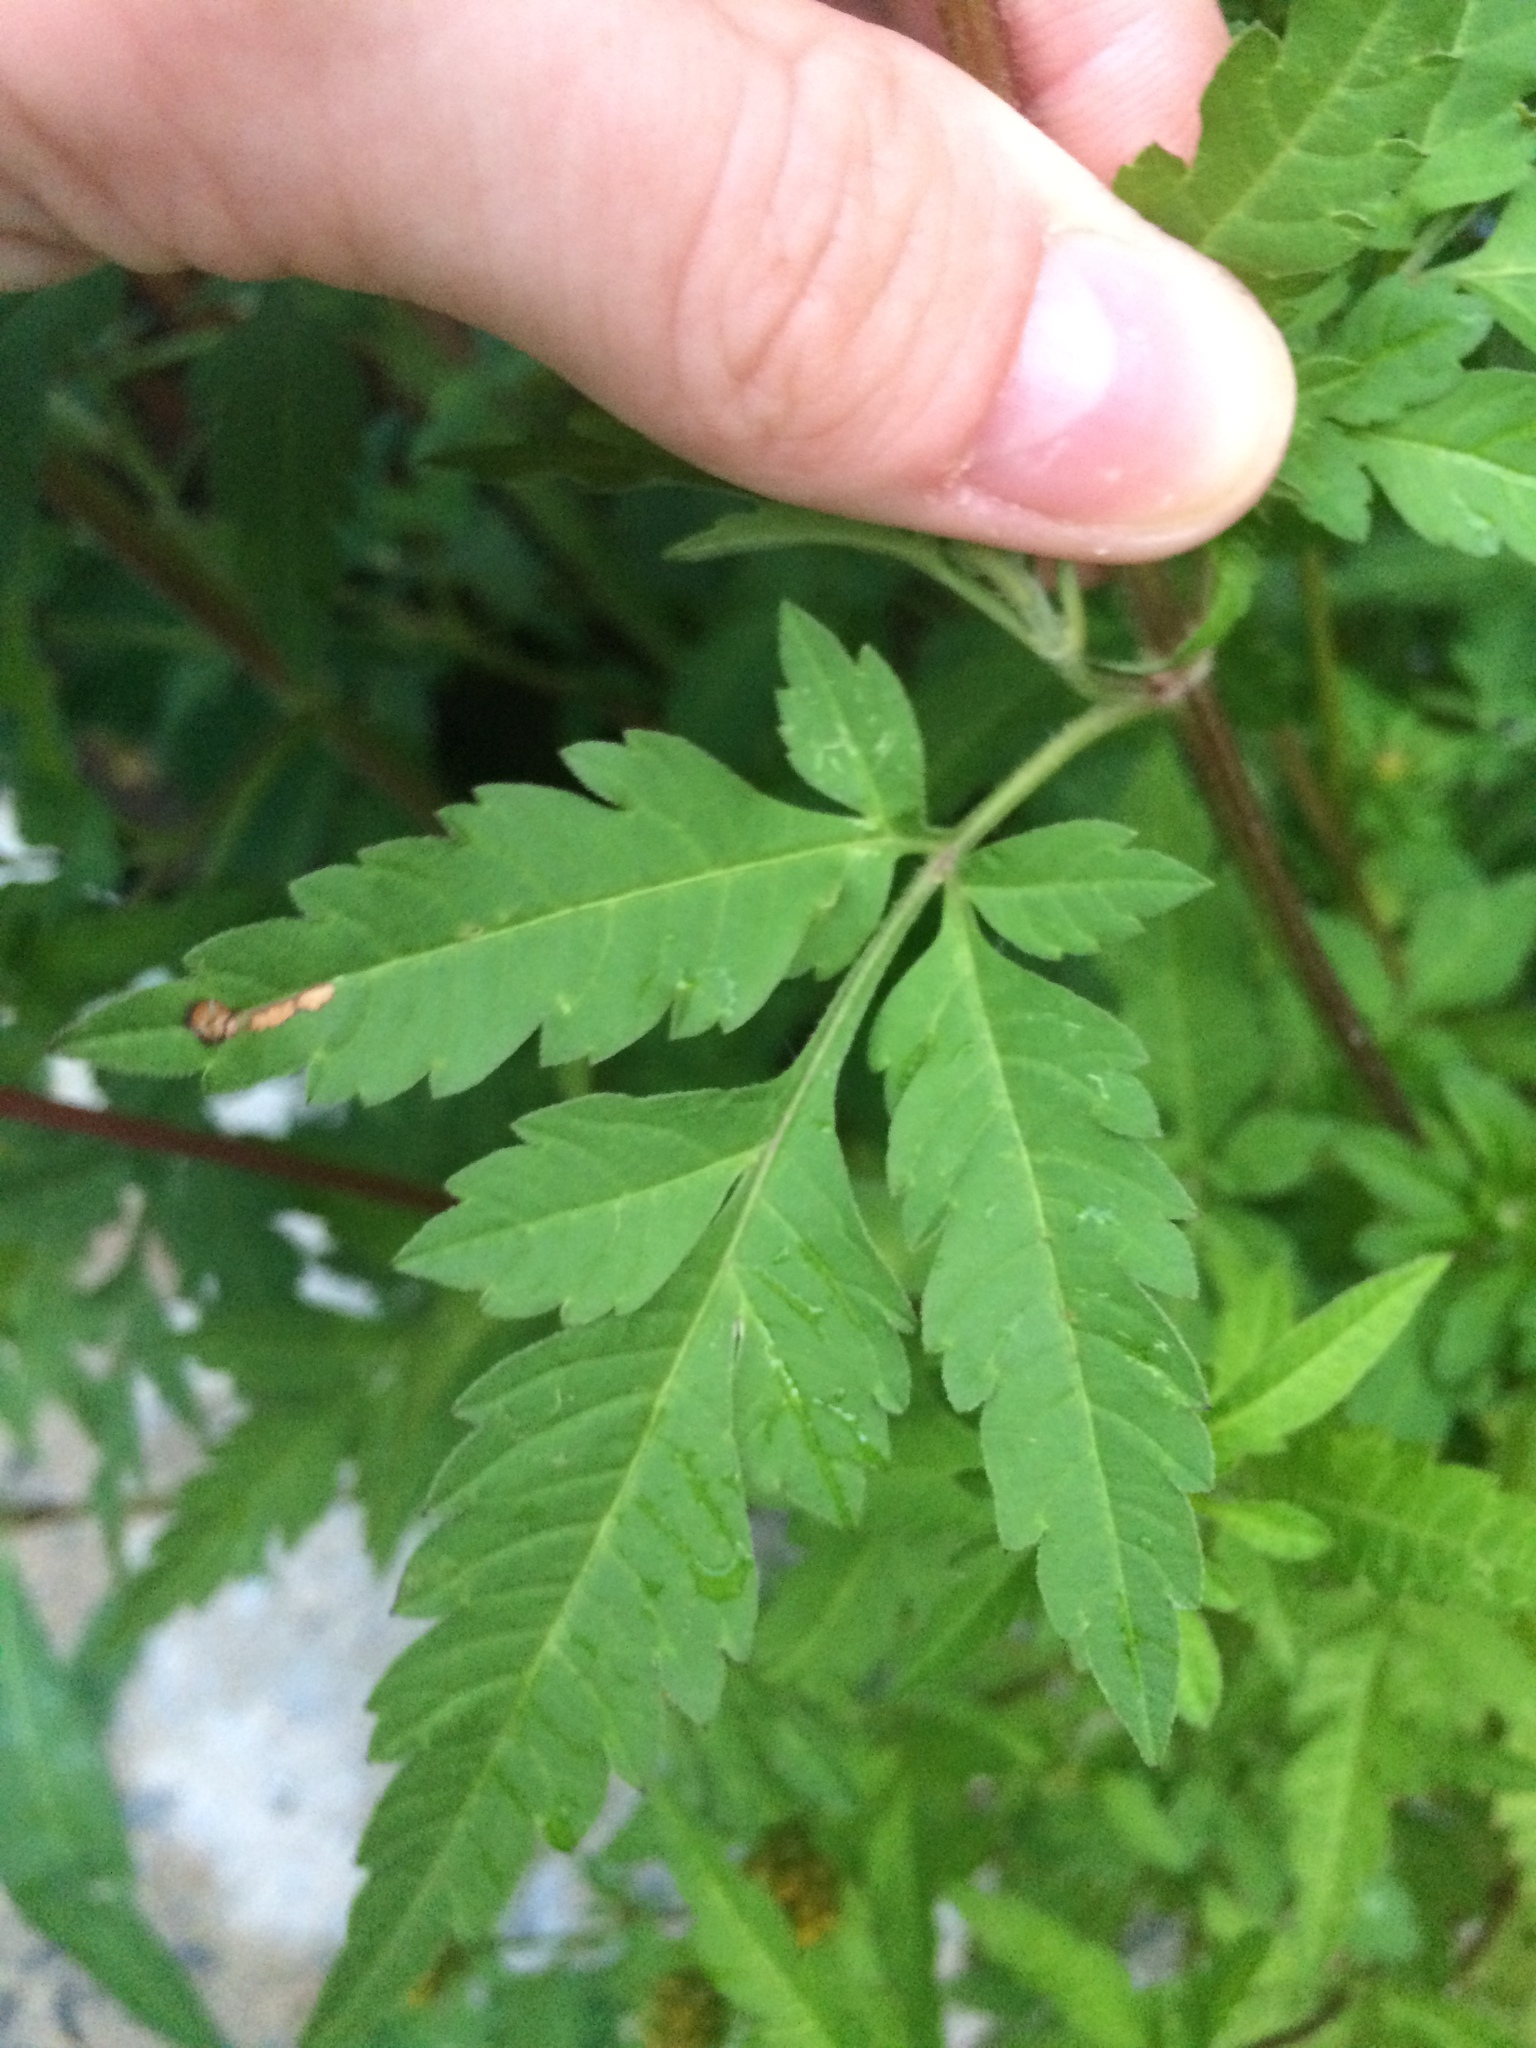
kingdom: Plantae
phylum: Tracheophyta
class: Magnoliopsida
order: Asterales
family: Asteraceae
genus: Bidens
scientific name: Bidens vulgata
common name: Tall beggarticks
